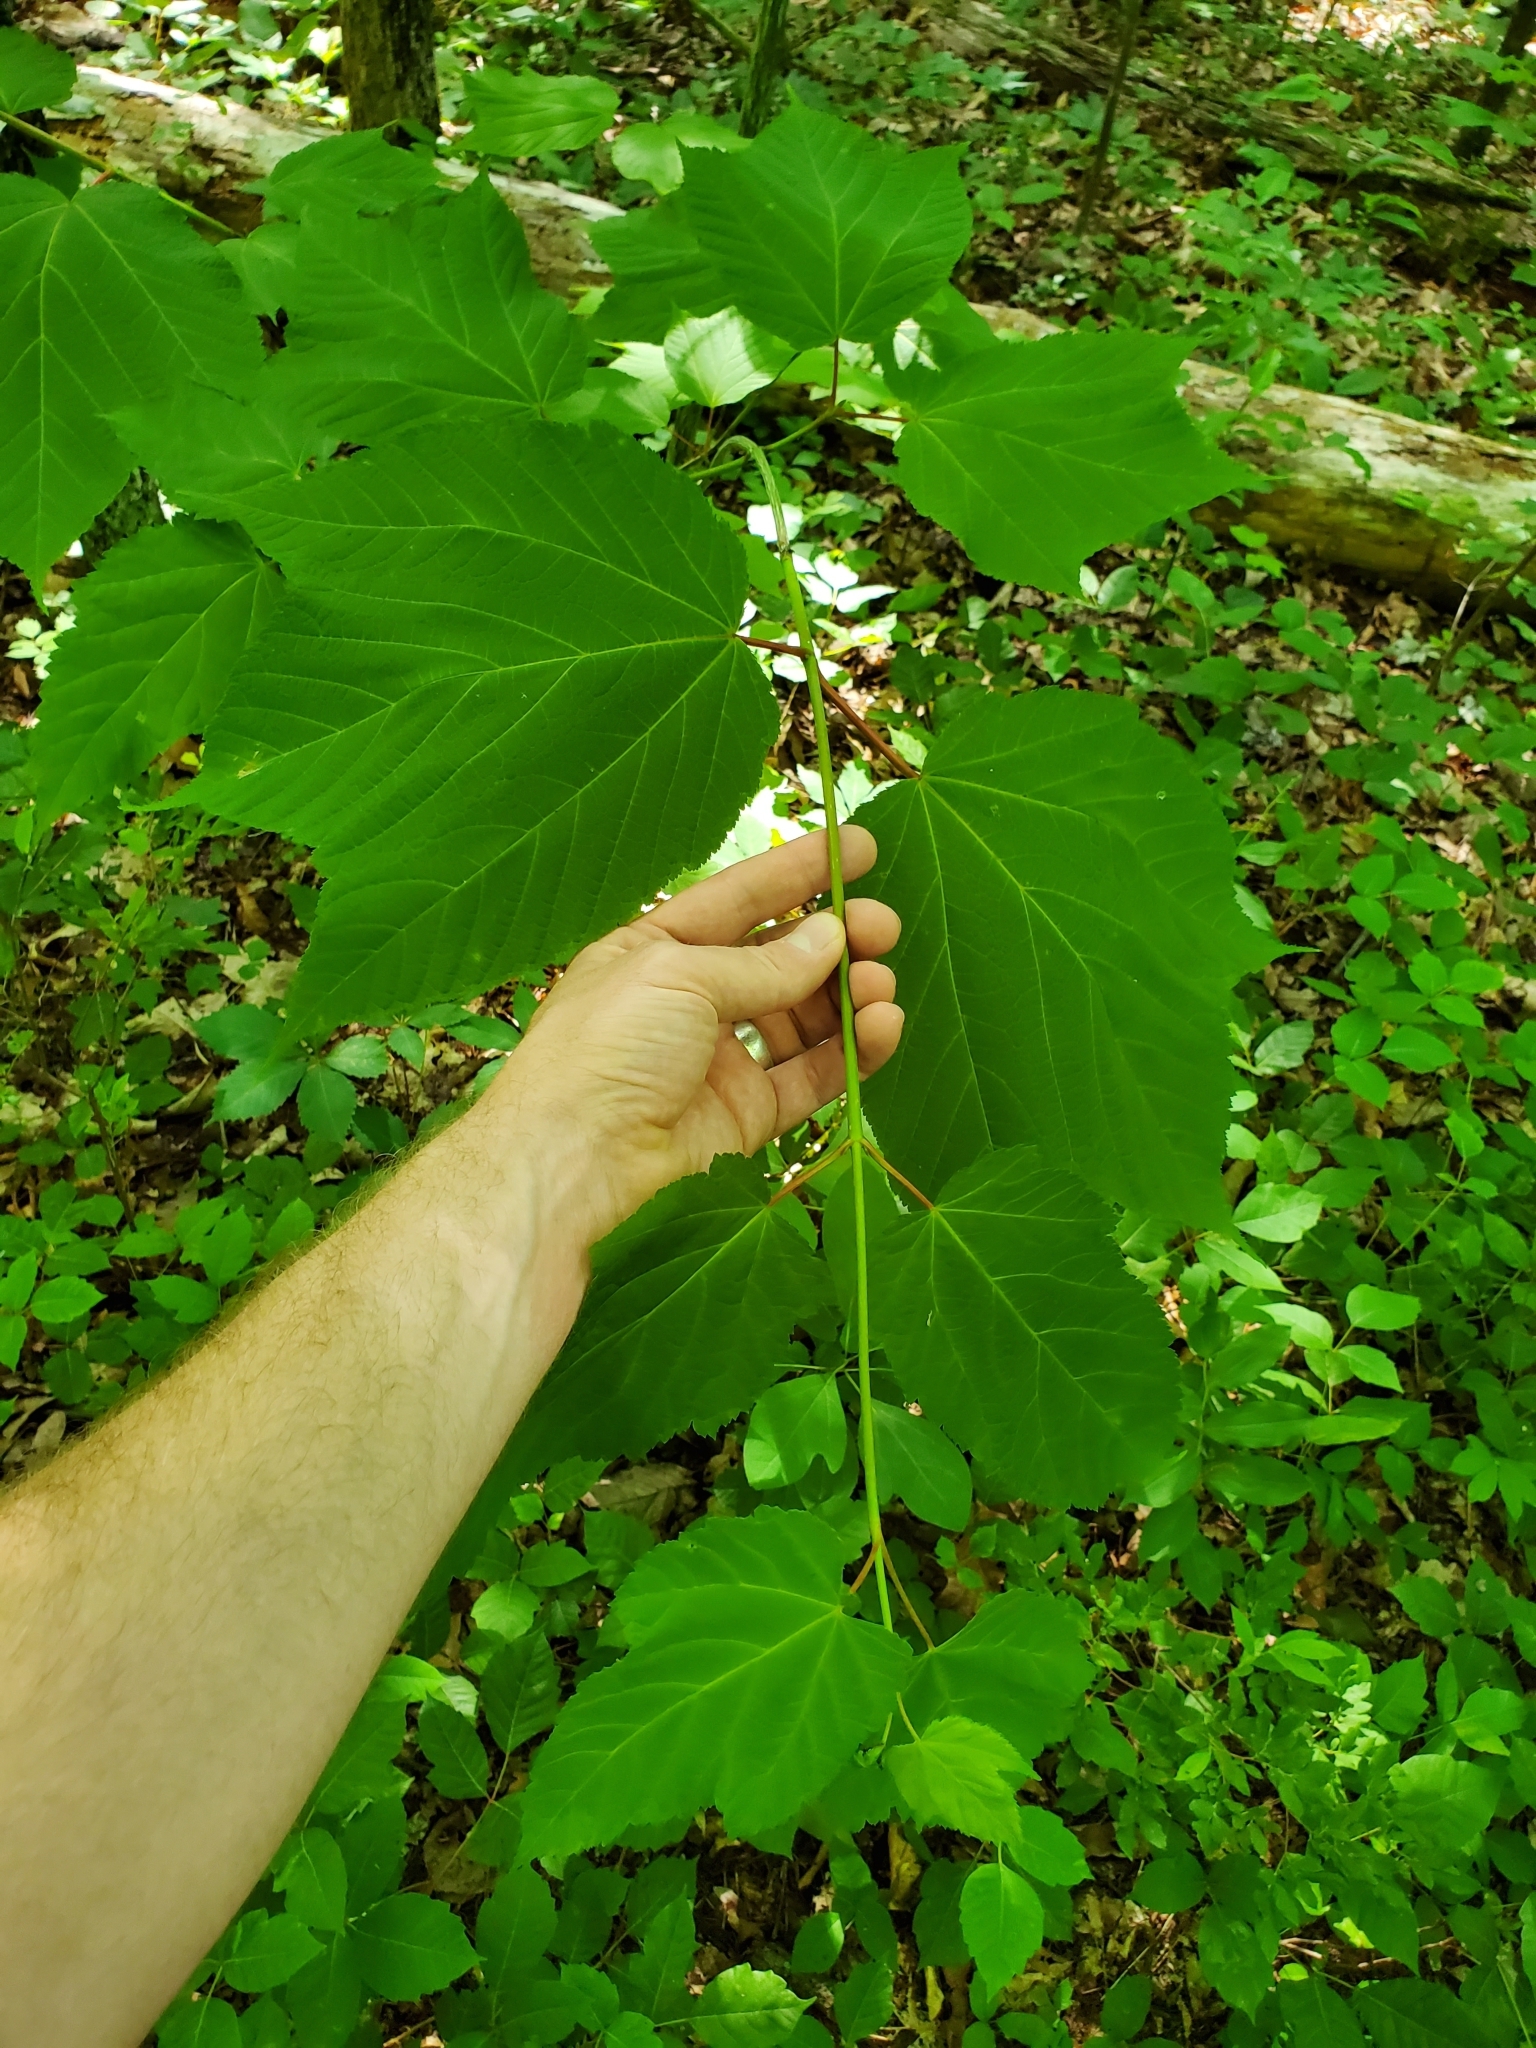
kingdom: Plantae
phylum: Tracheophyta
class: Magnoliopsida
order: Sapindales
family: Sapindaceae
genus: Acer
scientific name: Acer pensylvanicum
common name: Moosewood
